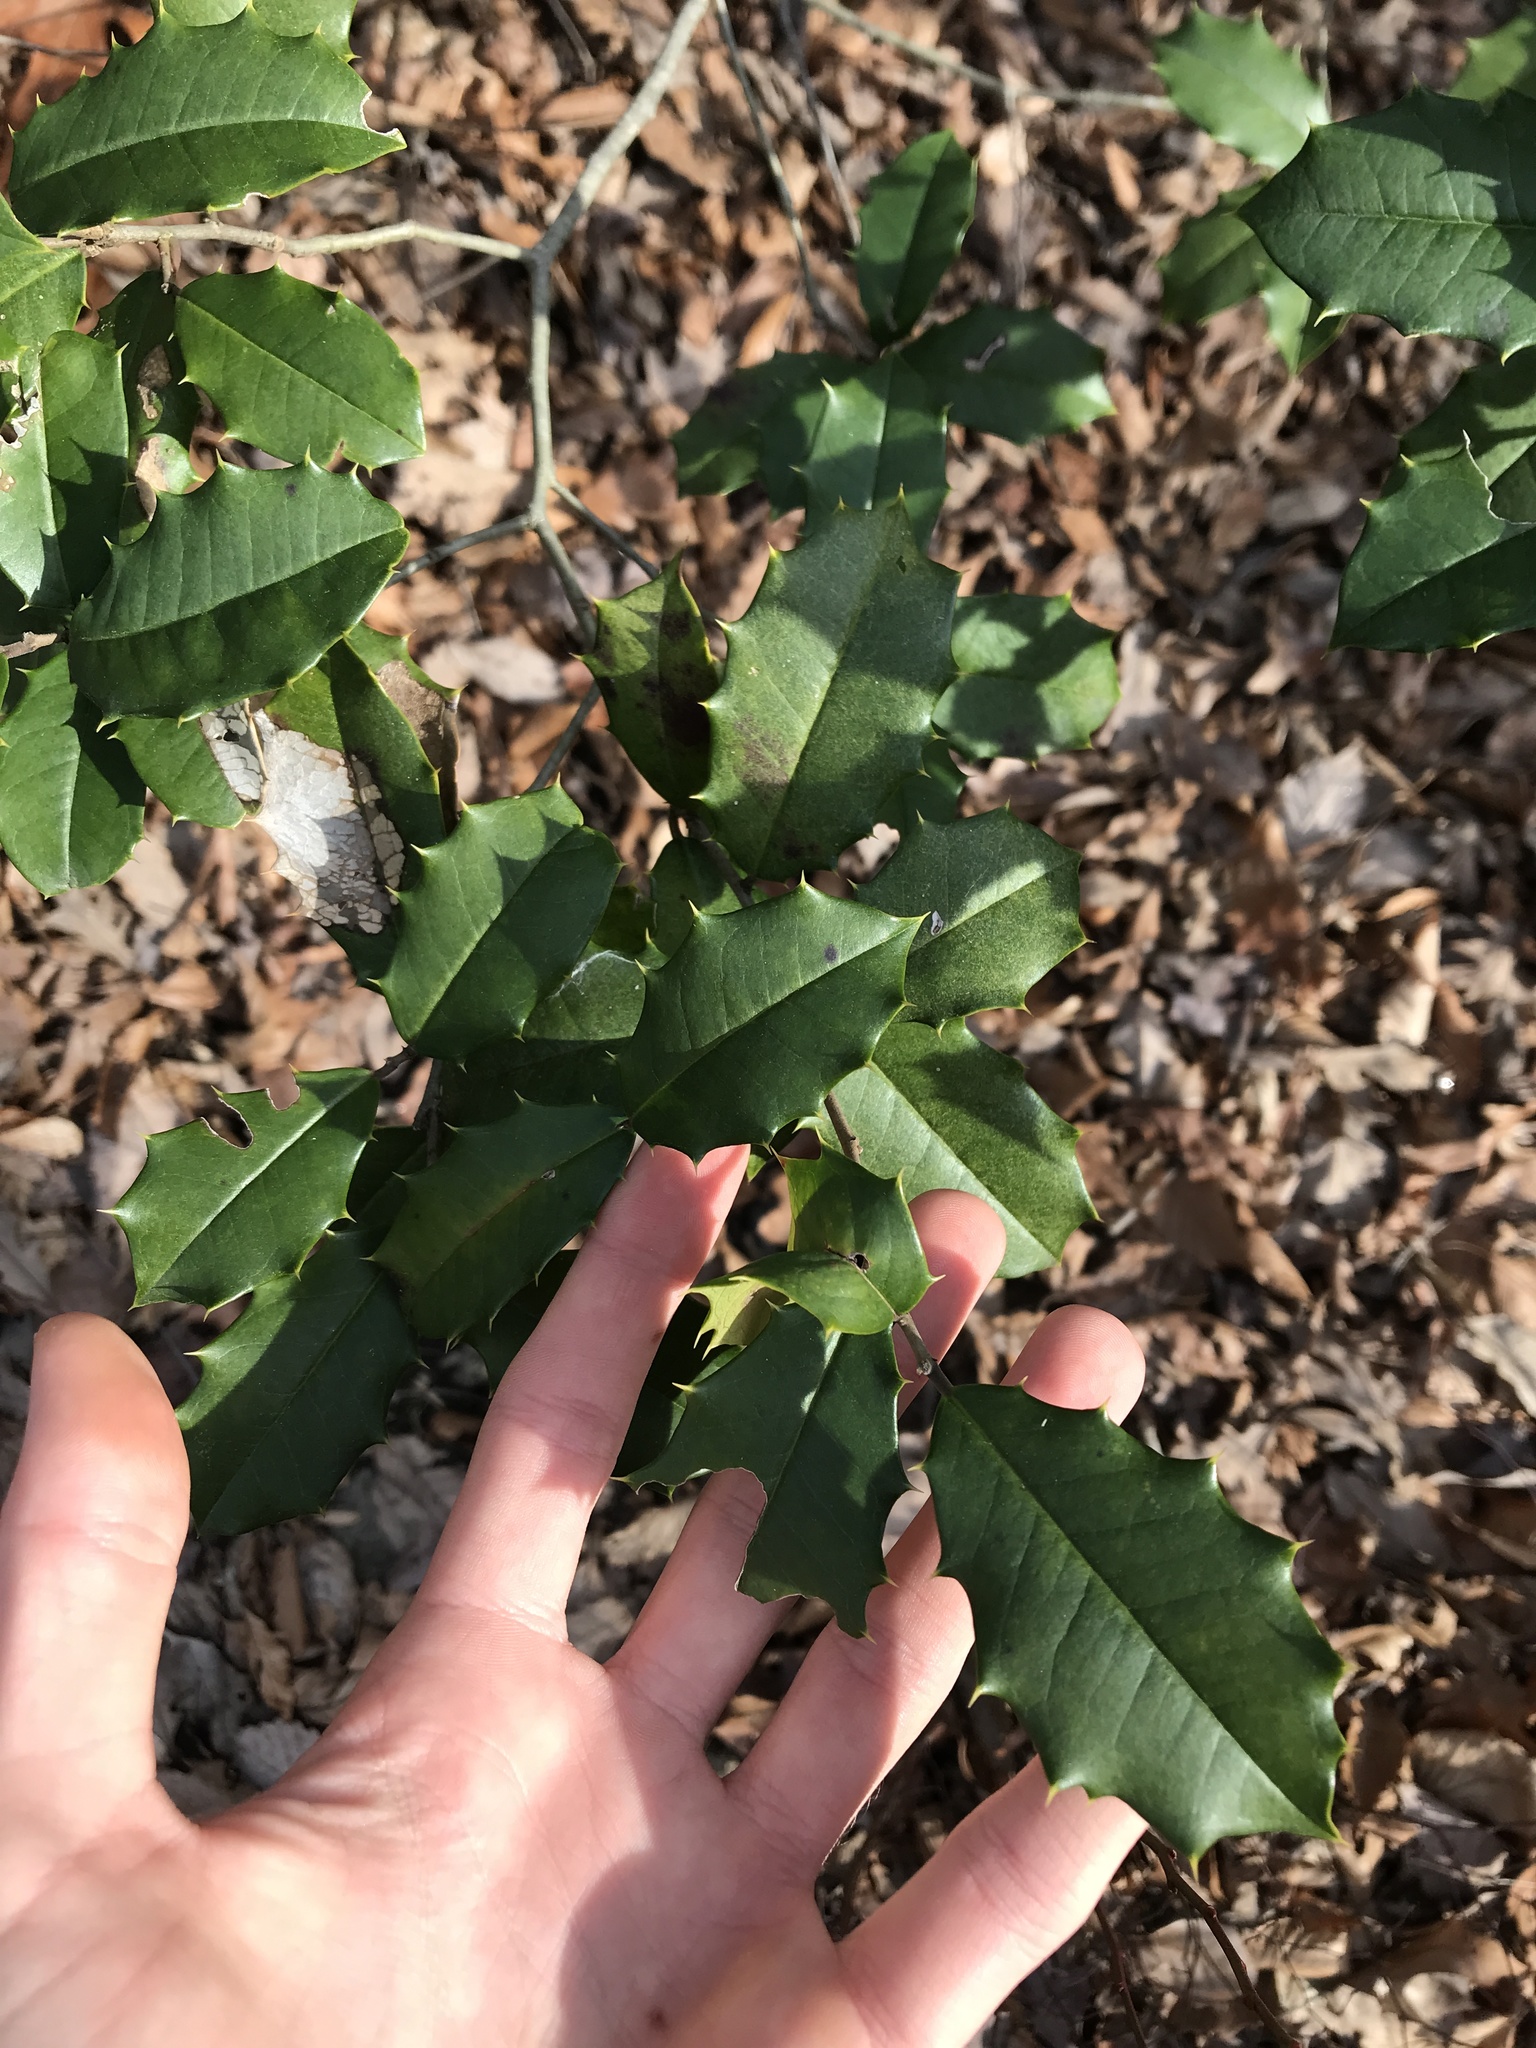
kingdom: Plantae
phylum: Tracheophyta
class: Magnoliopsida
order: Aquifoliales
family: Aquifoliaceae
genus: Ilex
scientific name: Ilex opaca
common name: American holly
